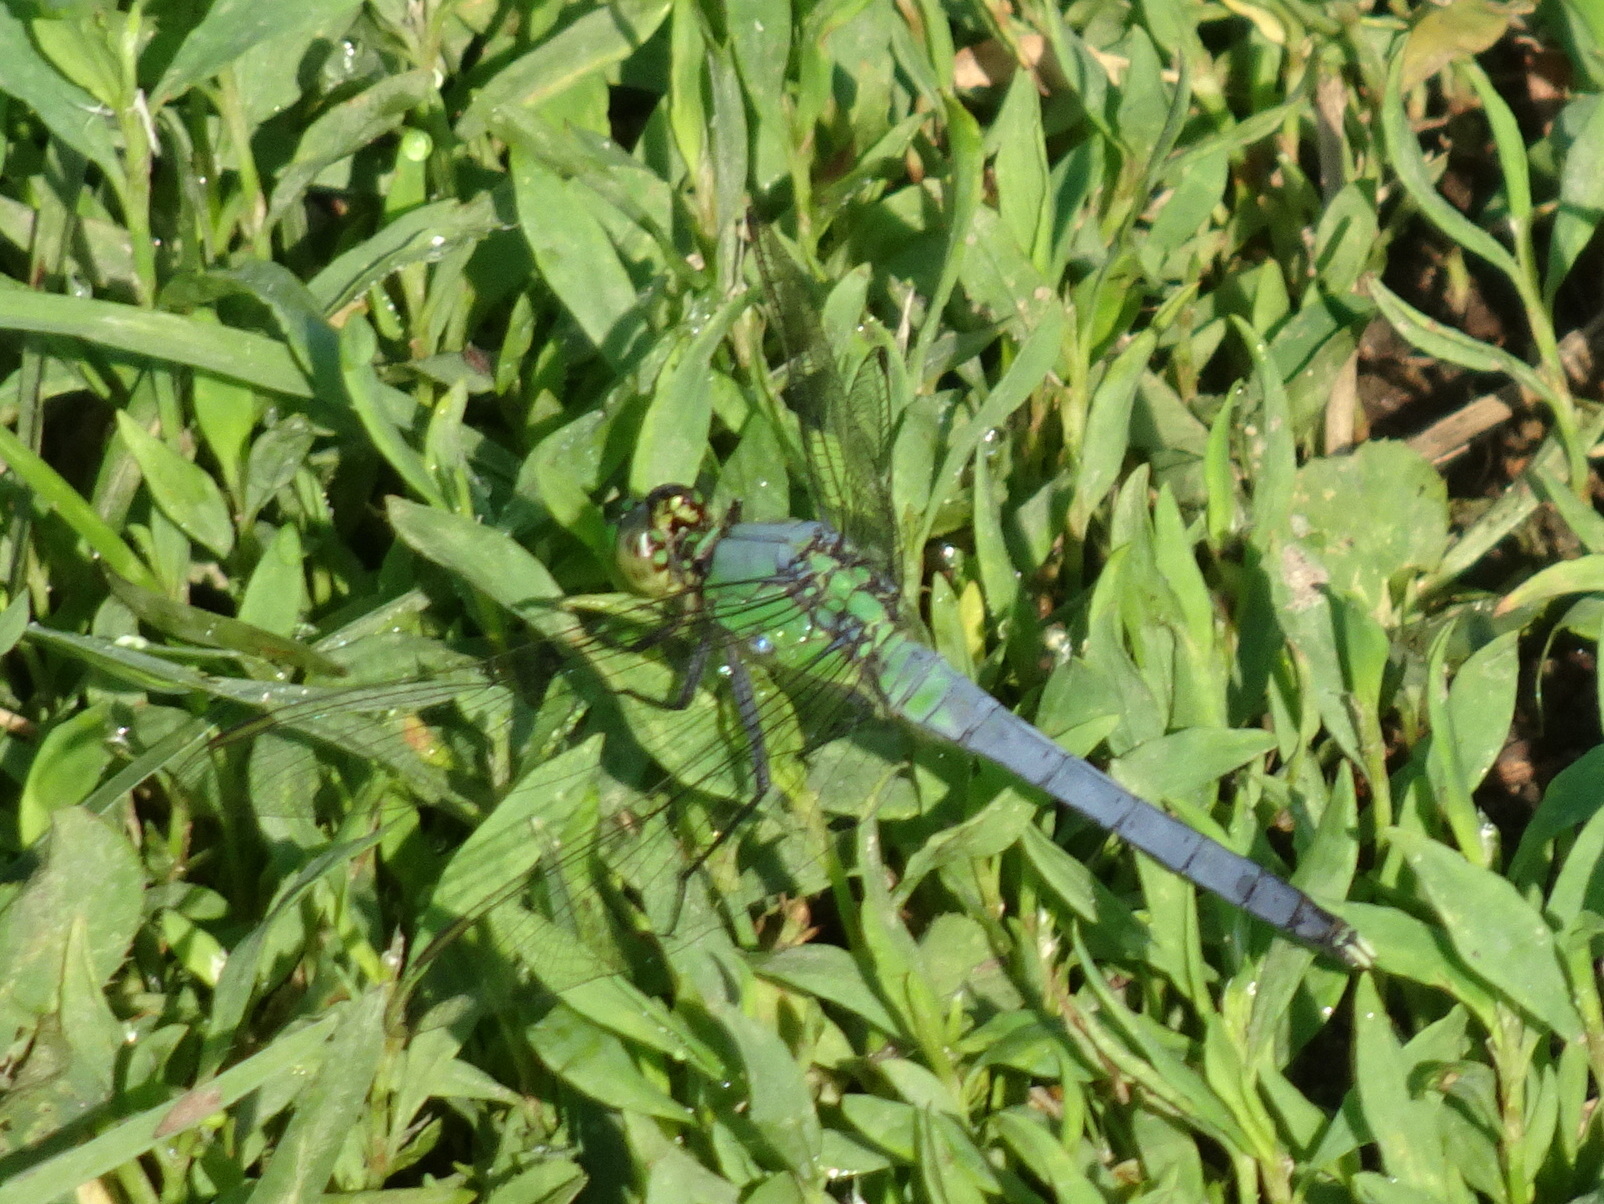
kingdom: Animalia
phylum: Arthropoda
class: Insecta
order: Odonata
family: Libellulidae
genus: Erythemis
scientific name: Erythemis simplicicollis
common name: Eastern pondhawk
